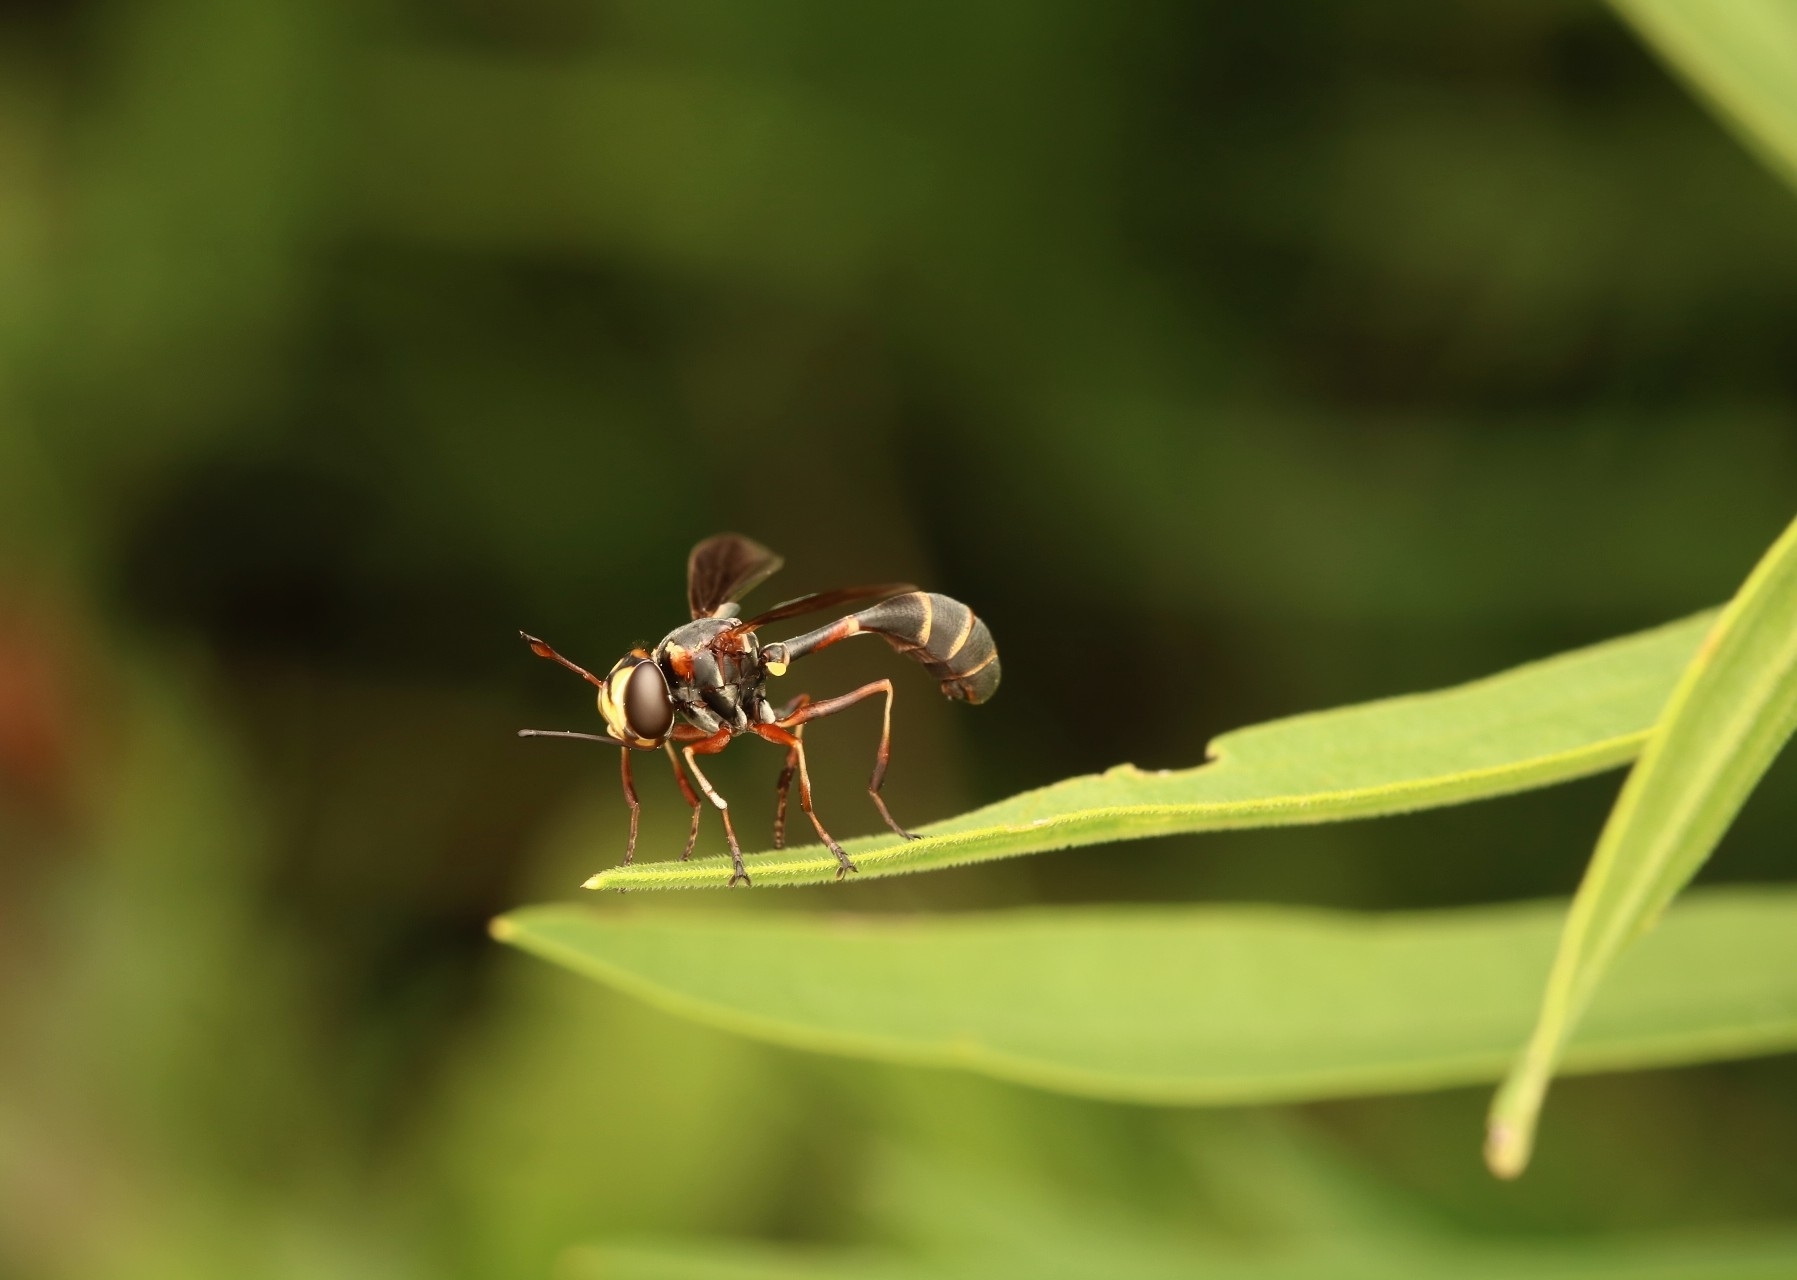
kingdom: Animalia
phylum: Arthropoda
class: Insecta
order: Diptera
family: Conopidae
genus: Physocephala
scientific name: Physocephala sagittaria
